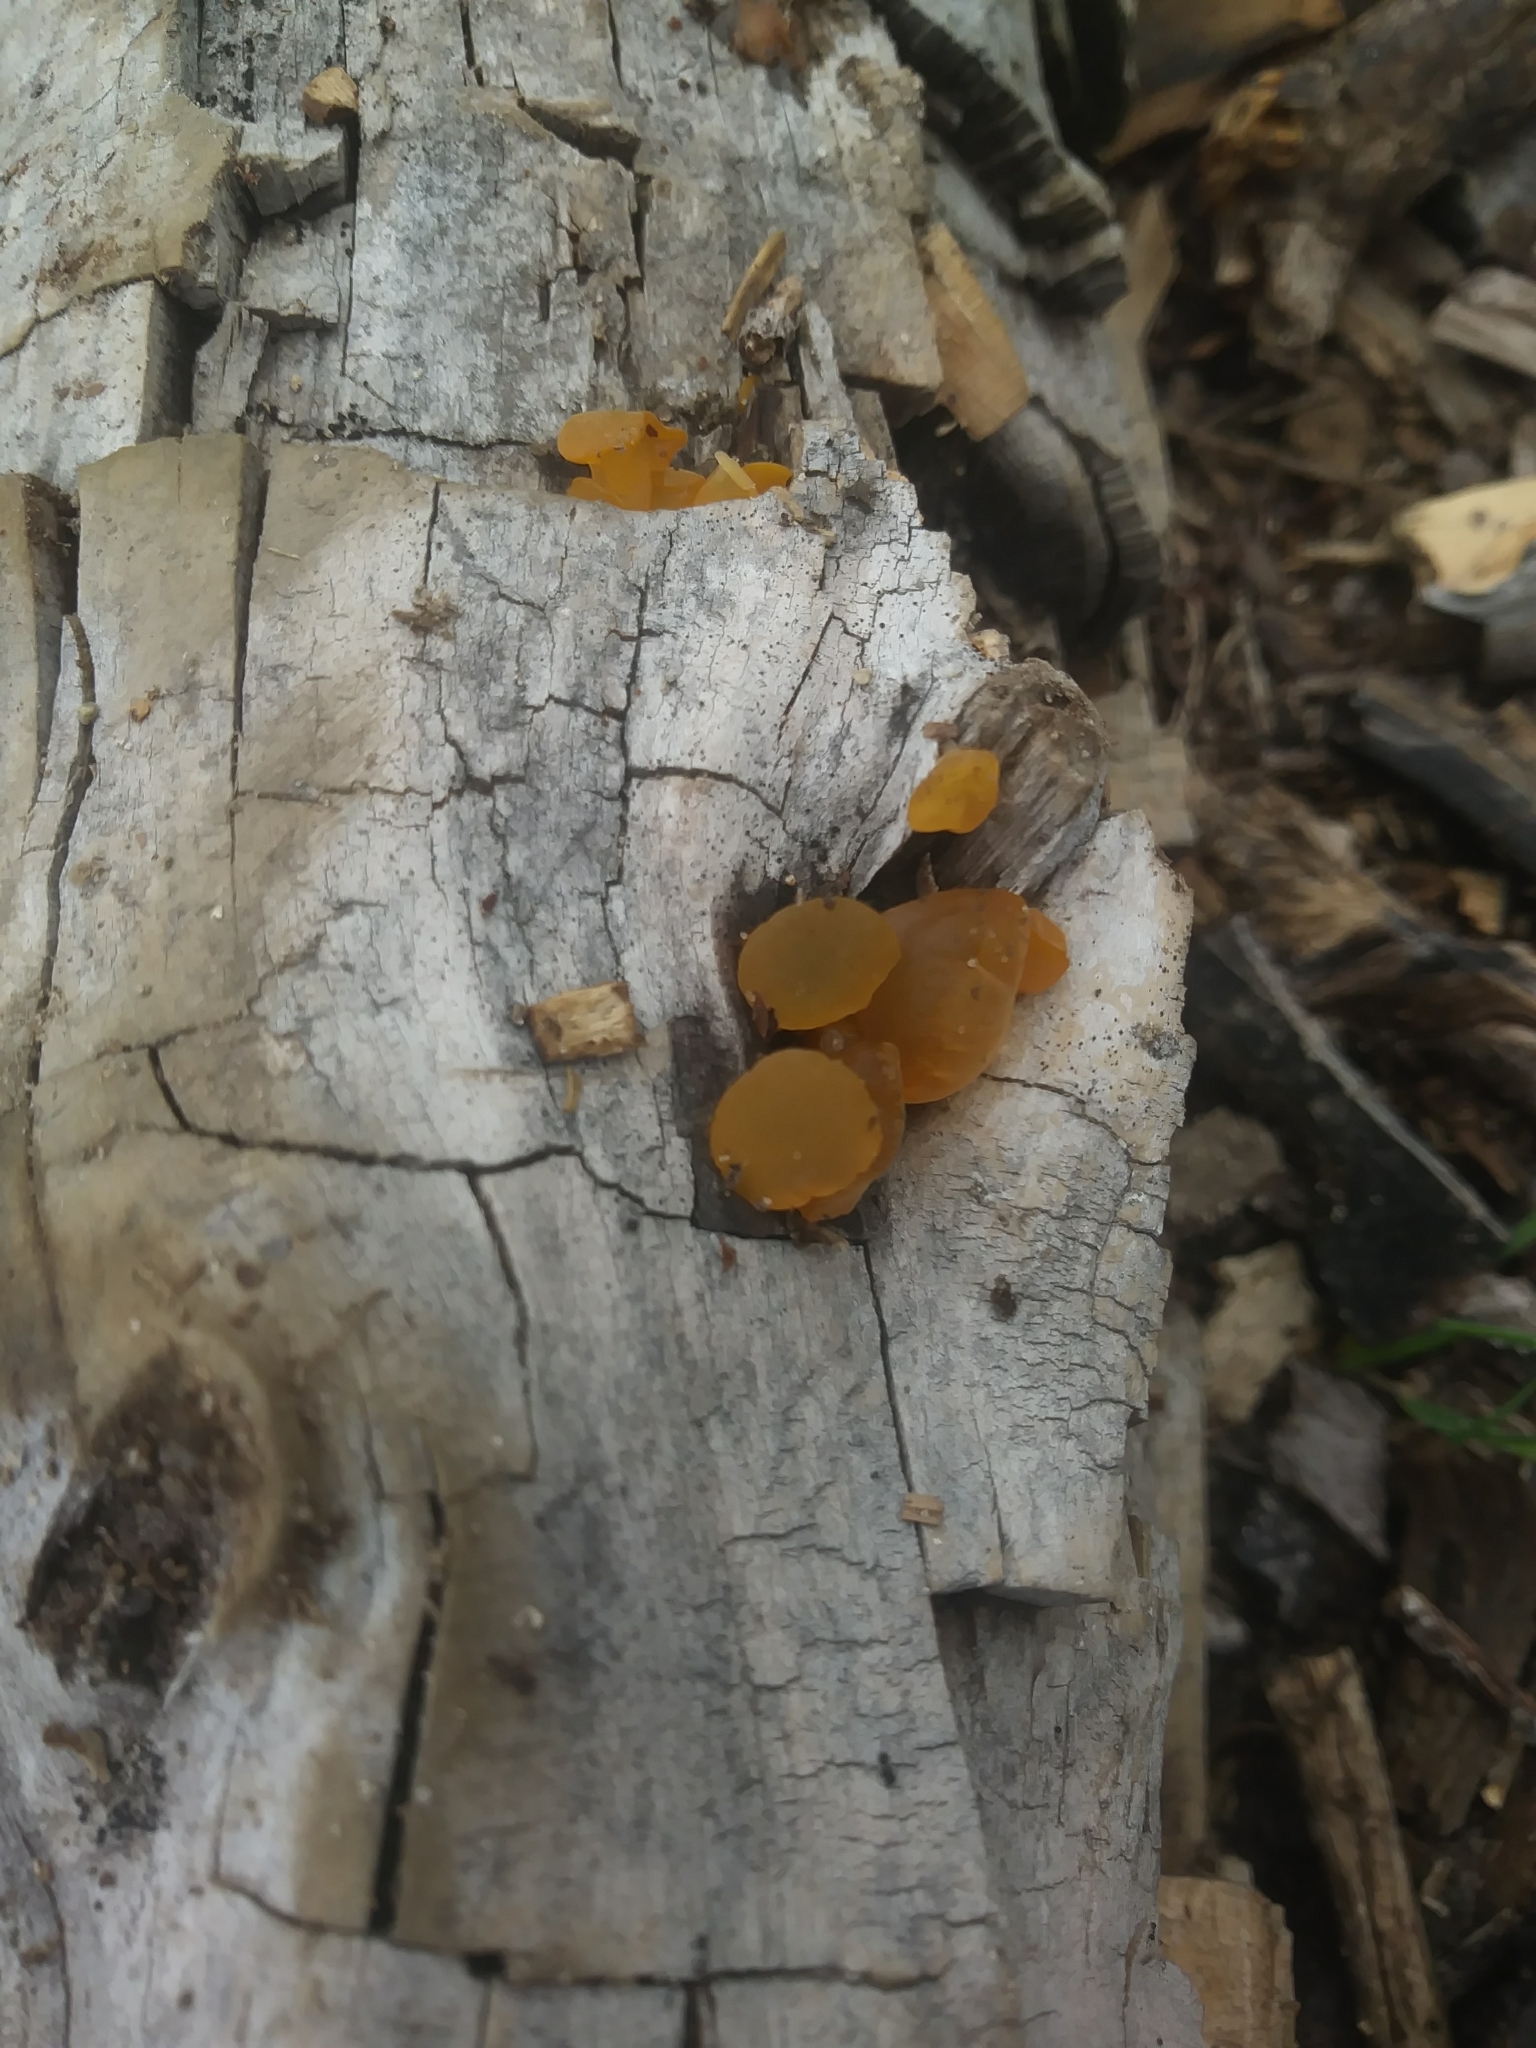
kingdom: Fungi
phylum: Basidiomycota
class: Dacrymycetes
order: Dacrymycetales
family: Dacrymycetaceae
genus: Guepiniopsis
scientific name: Guepiniopsis alpina
